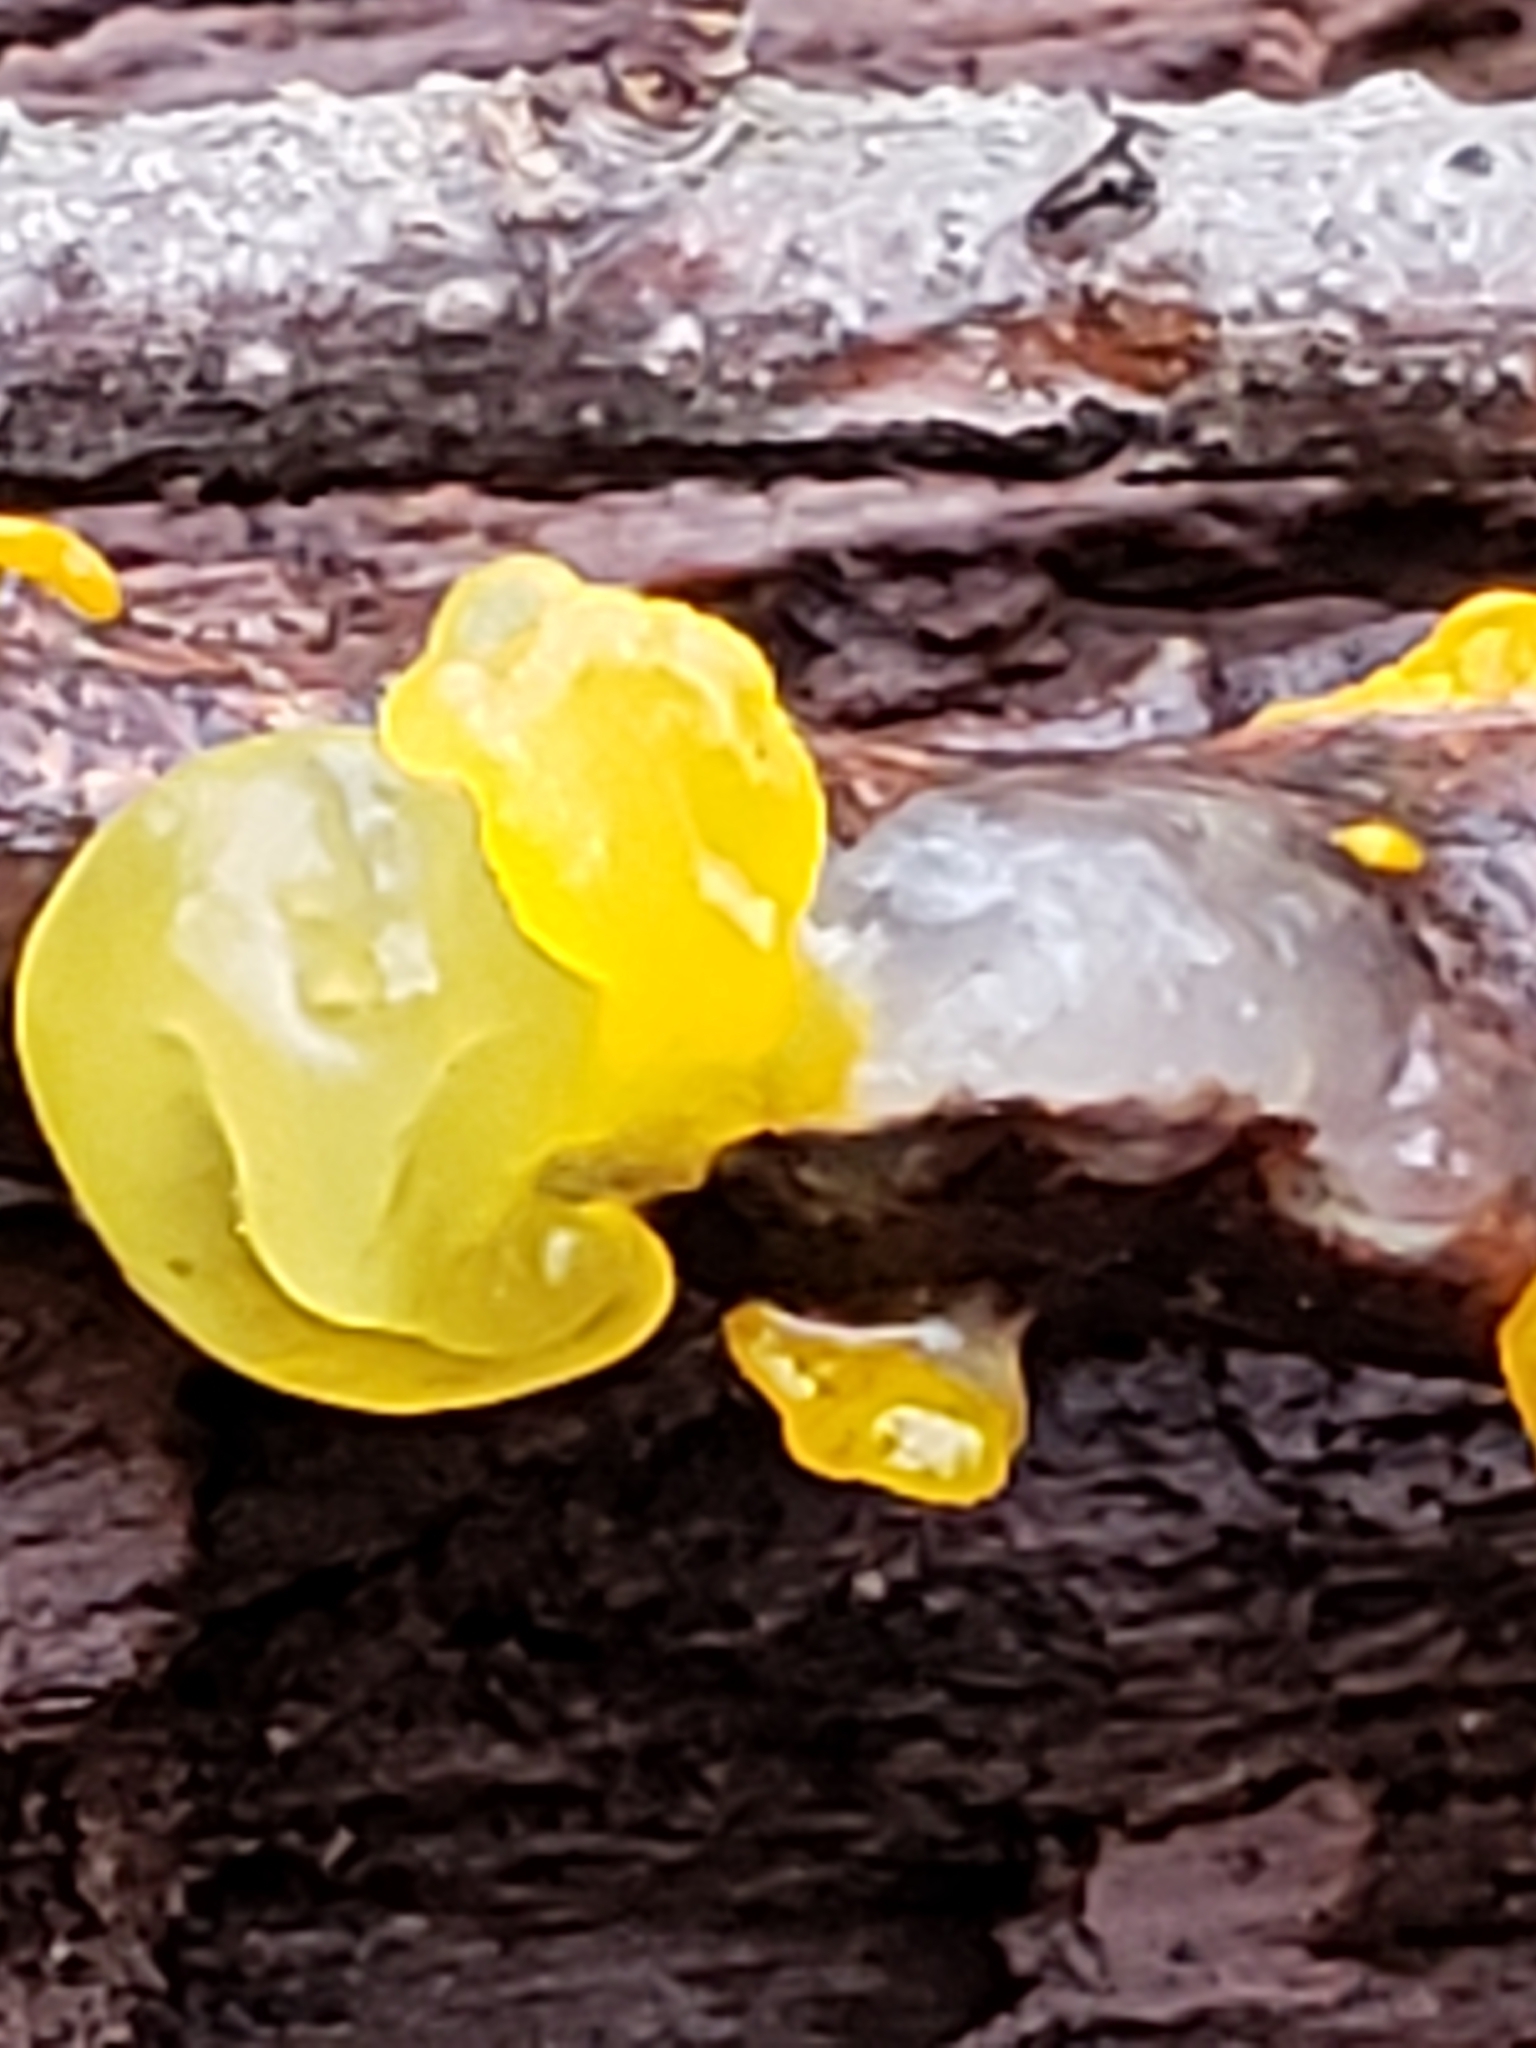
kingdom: Fungi
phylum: Basidiomycota
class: Tremellomycetes
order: Tremellales
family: Tremellaceae
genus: Tremella
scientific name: Tremella mesenterica
